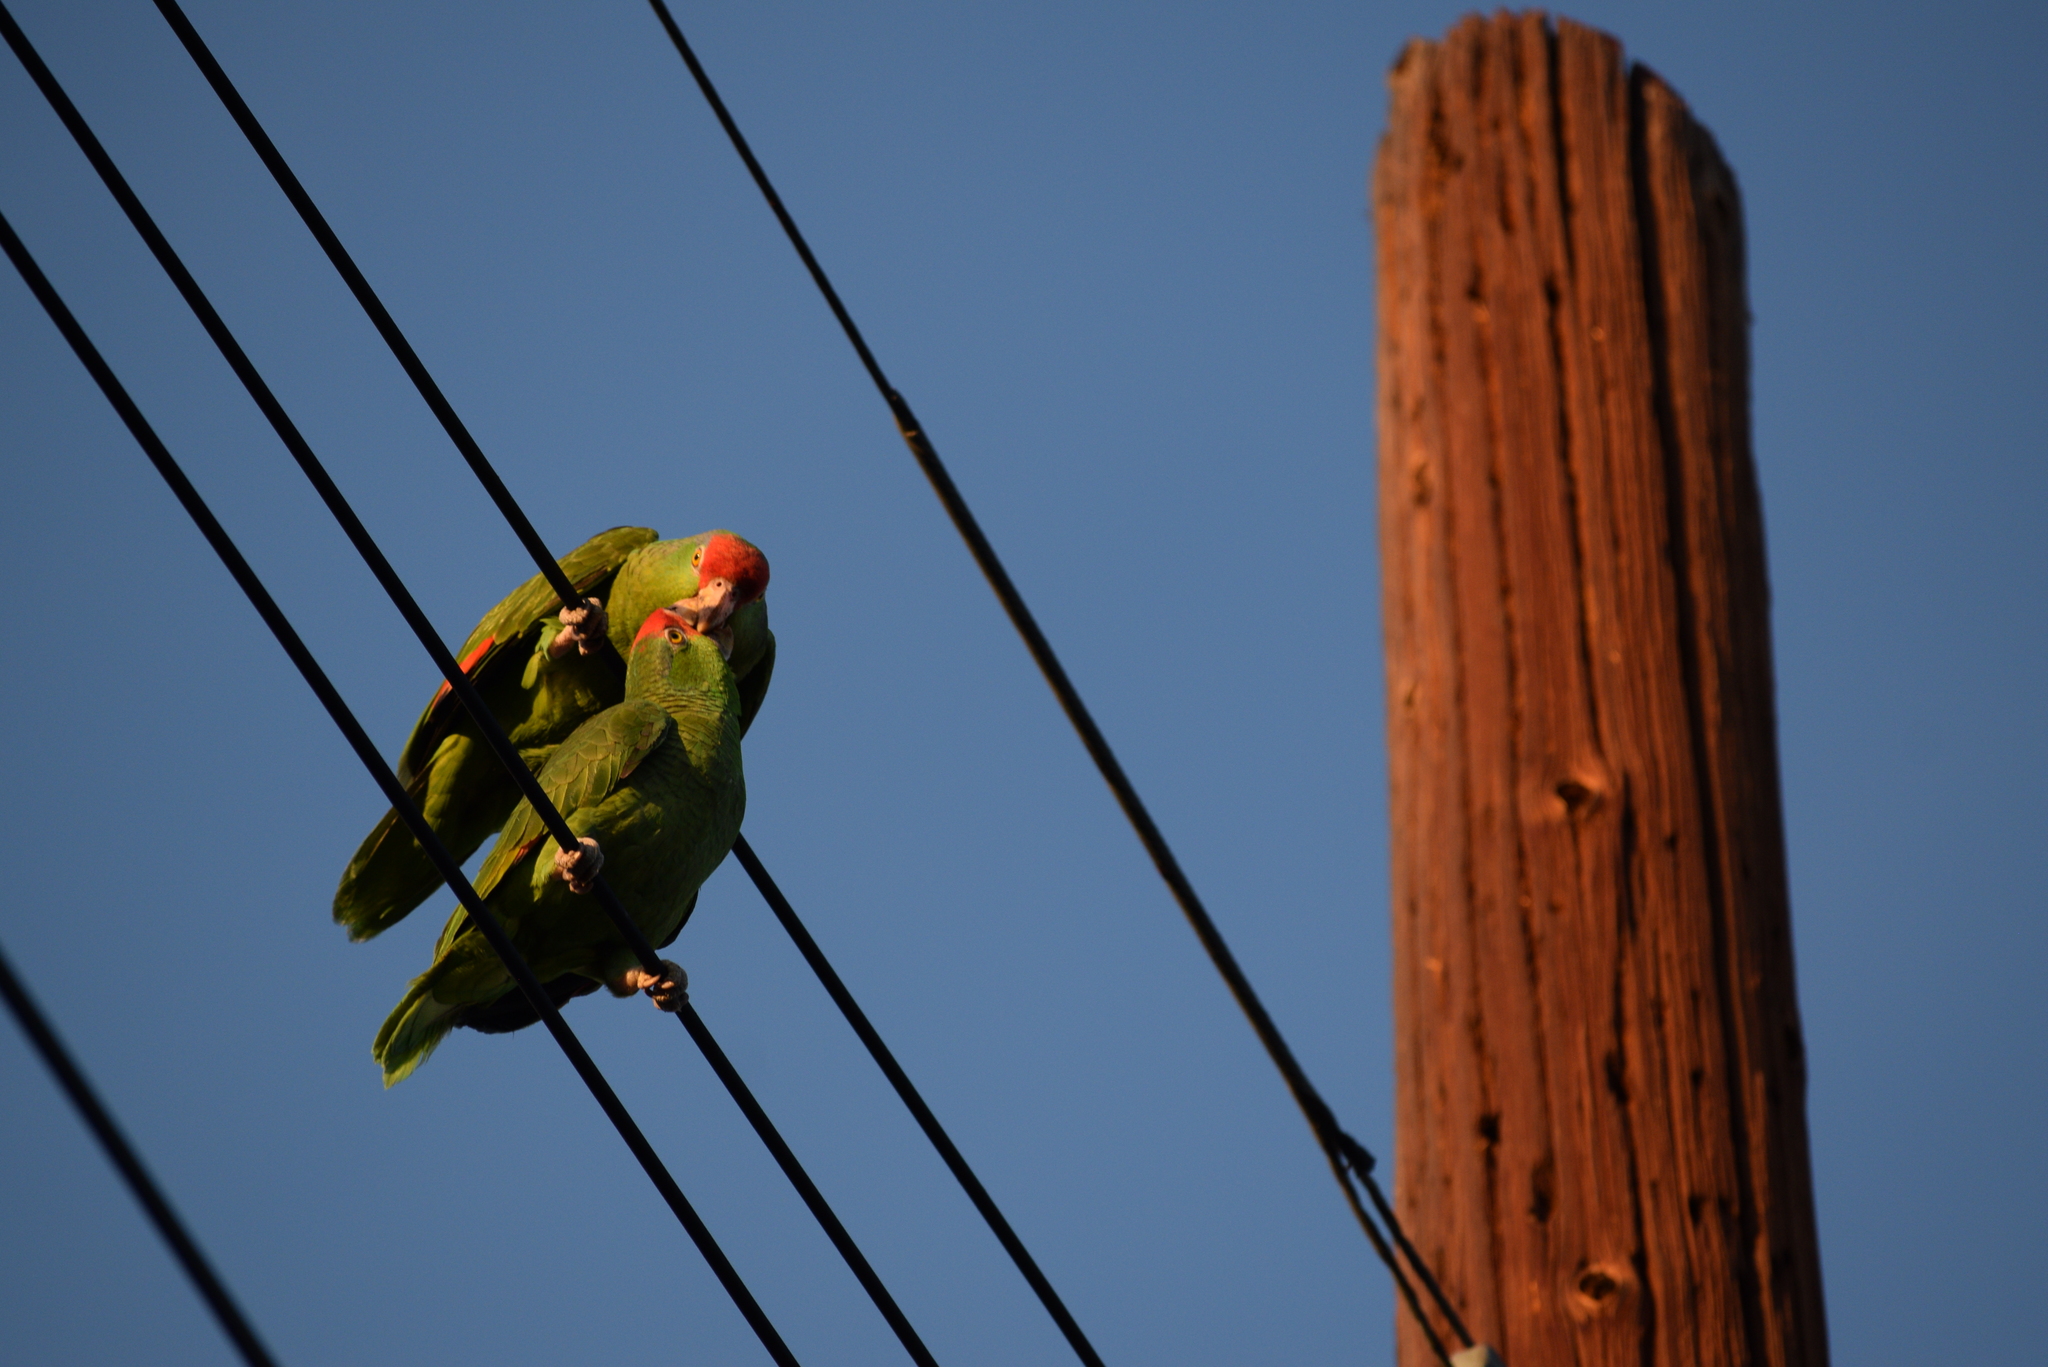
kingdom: Animalia
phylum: Chordata
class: Aves
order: Psittaciformes
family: Psittacidae
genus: Amazona
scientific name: Amazona viridigenalis
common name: Red-crowned amazon
